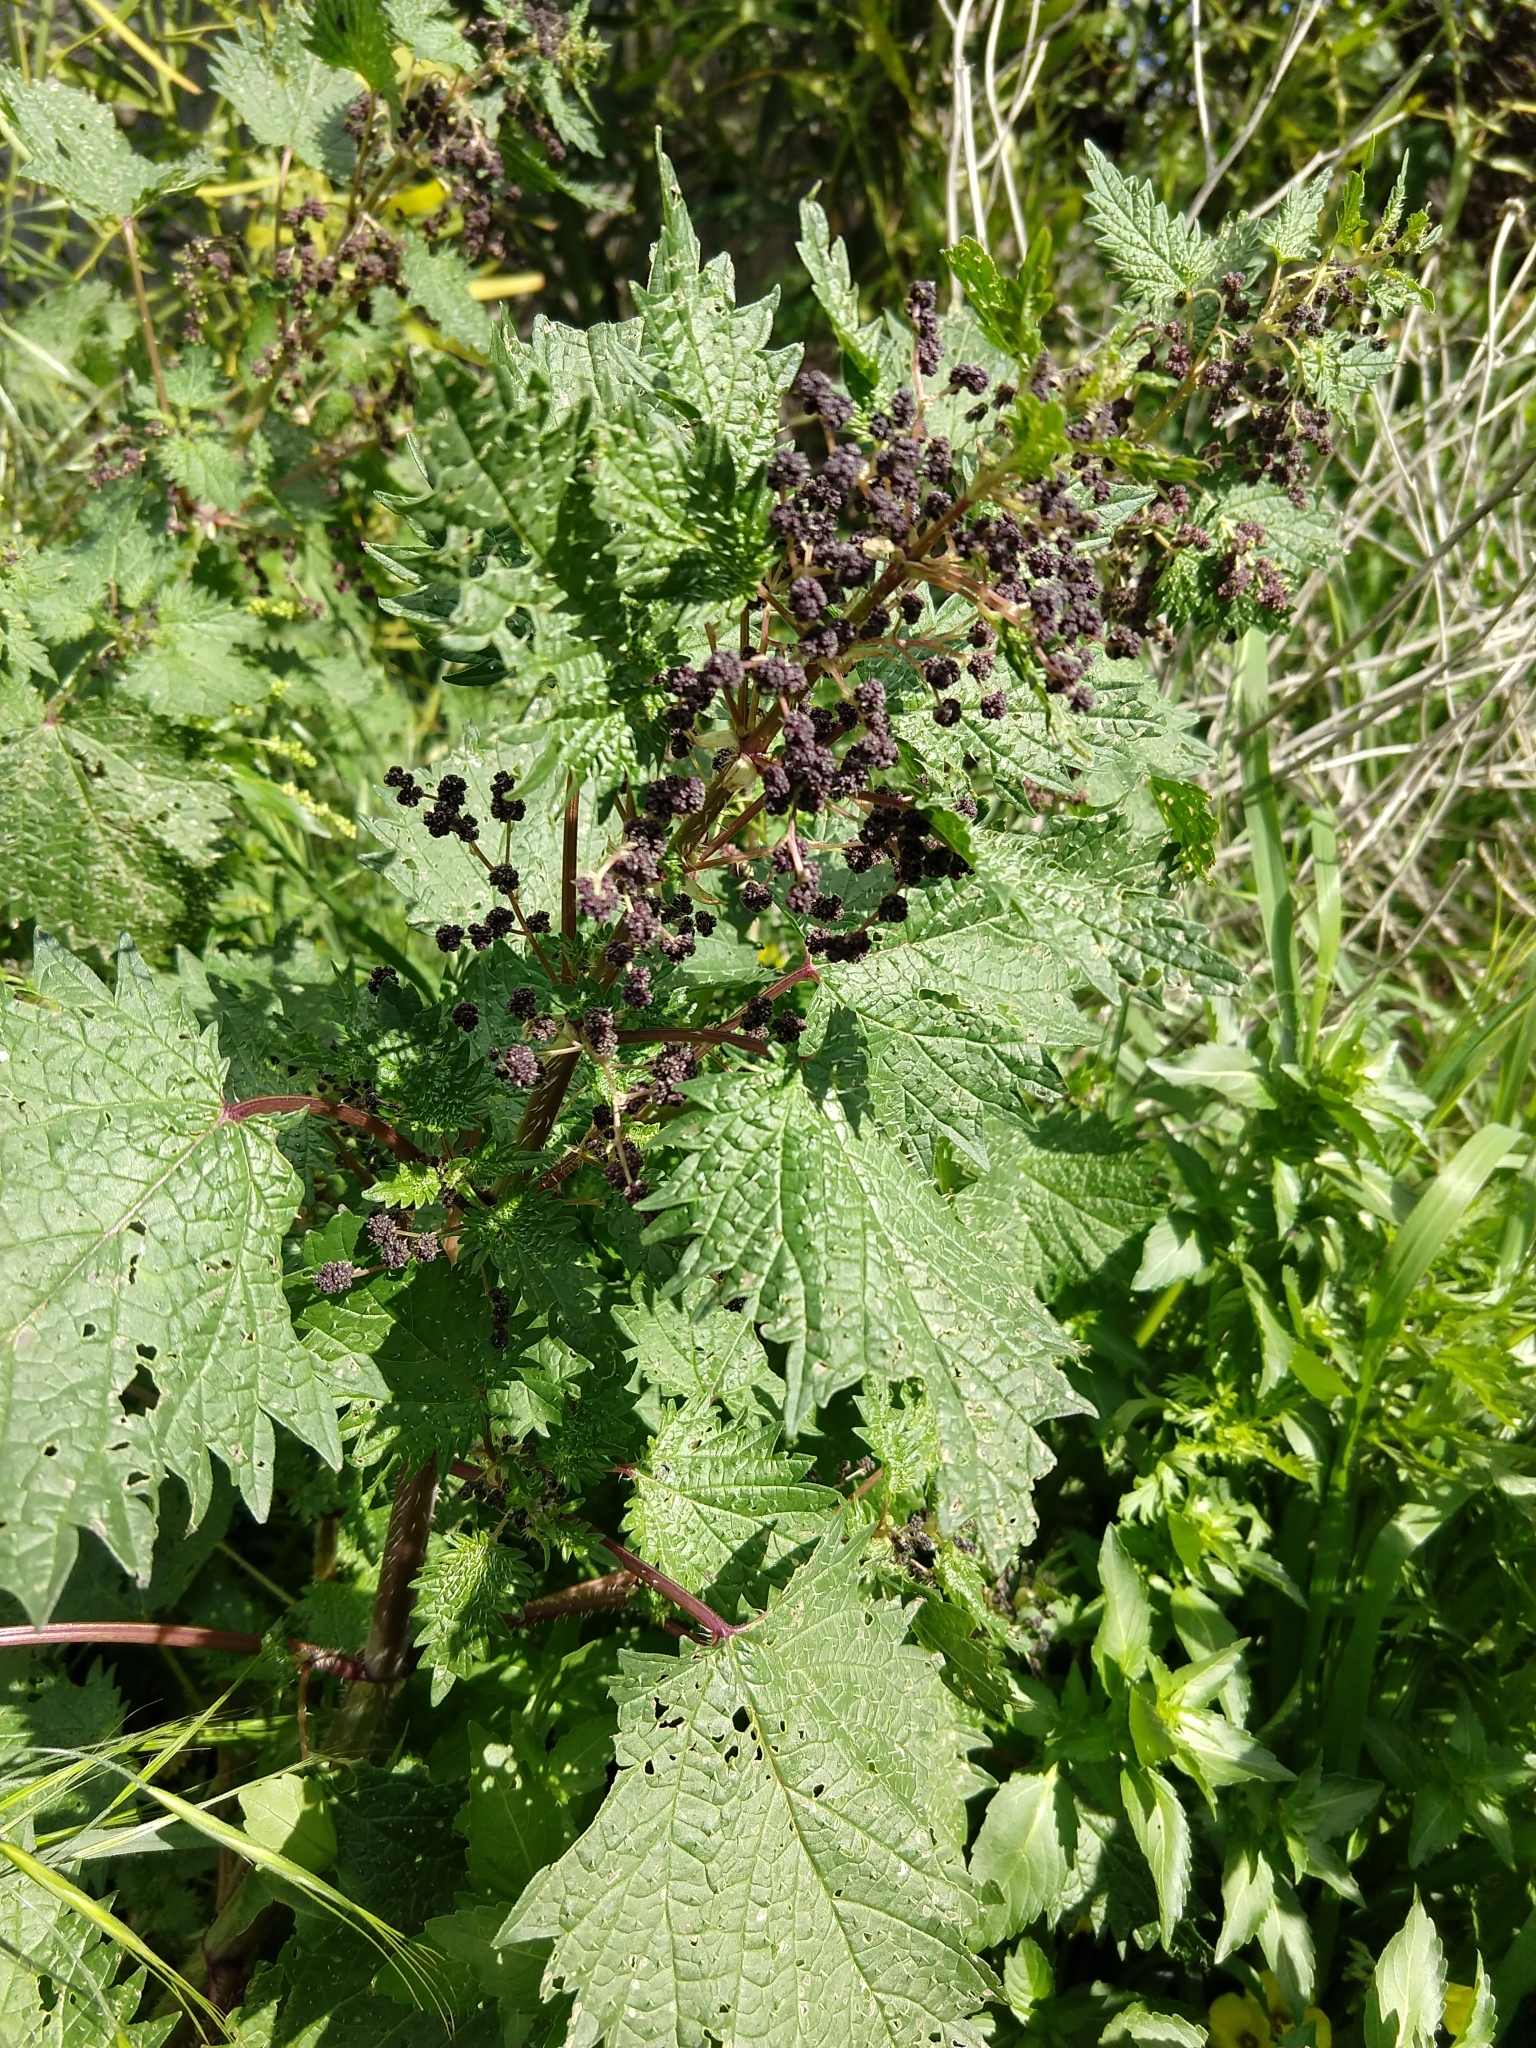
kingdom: Plantae
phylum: Tracheophyta
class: Magnoliopsida
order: Rosales
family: Urticaceae
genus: Urtica
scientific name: Urtica pilulifera
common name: Roman nettle
